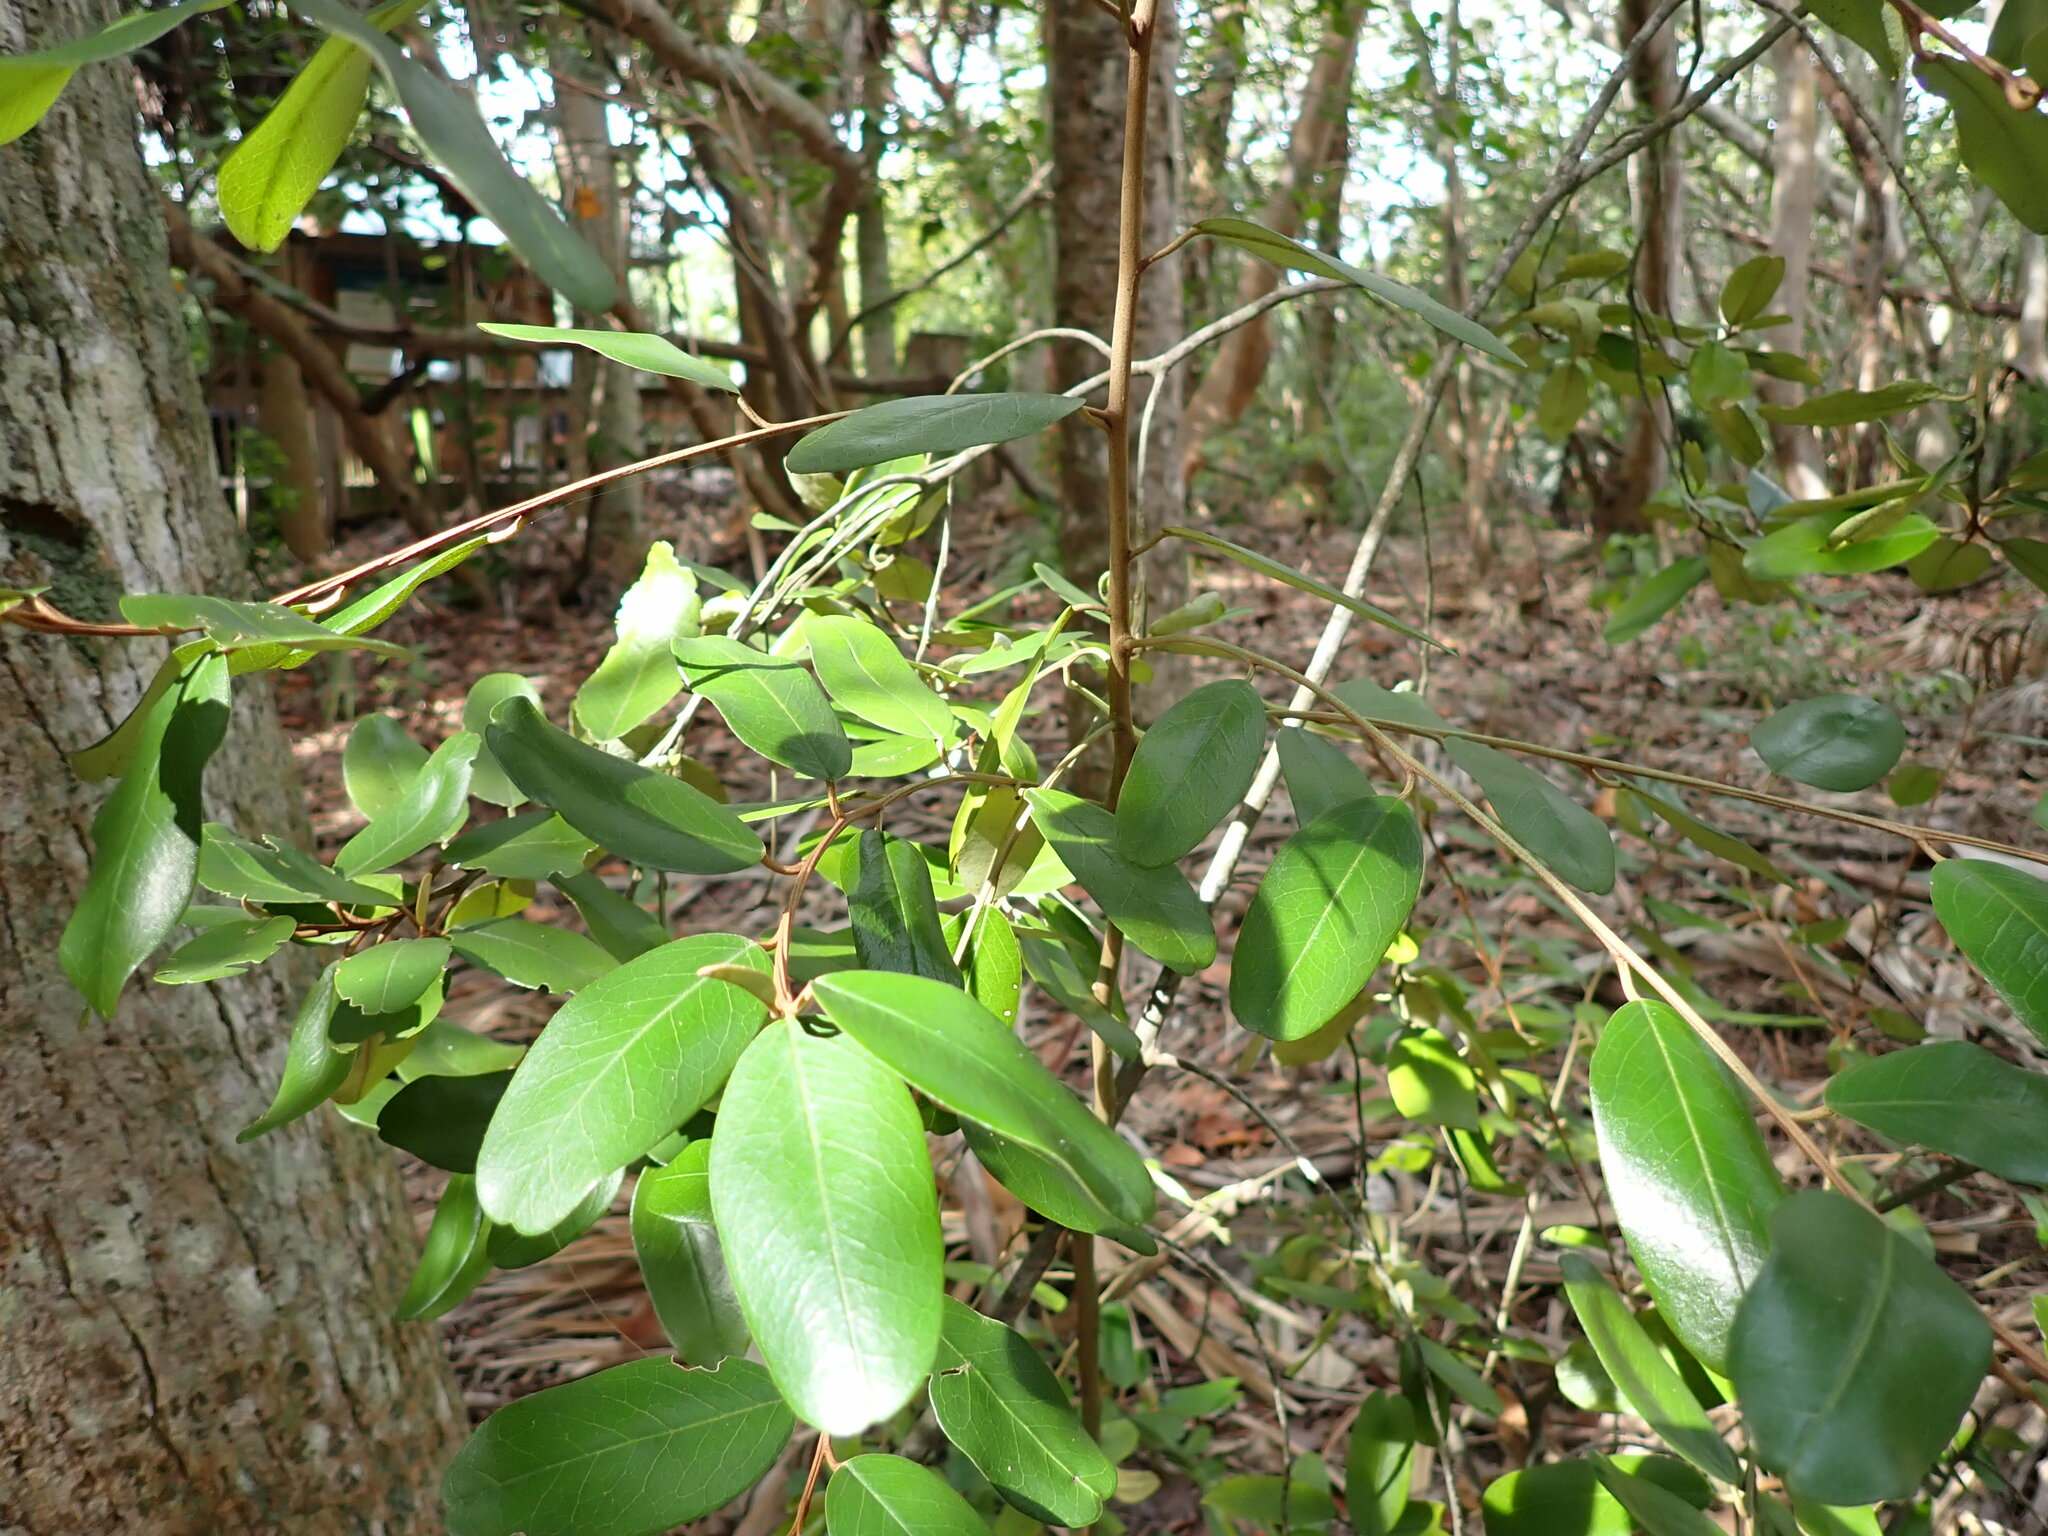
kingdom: Plantae
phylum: Tracheophyta
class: Magnoliopsida
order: Brassicales
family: Capparaceae
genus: Quadrella
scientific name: Quadrella cynophallophora
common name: Black willow
